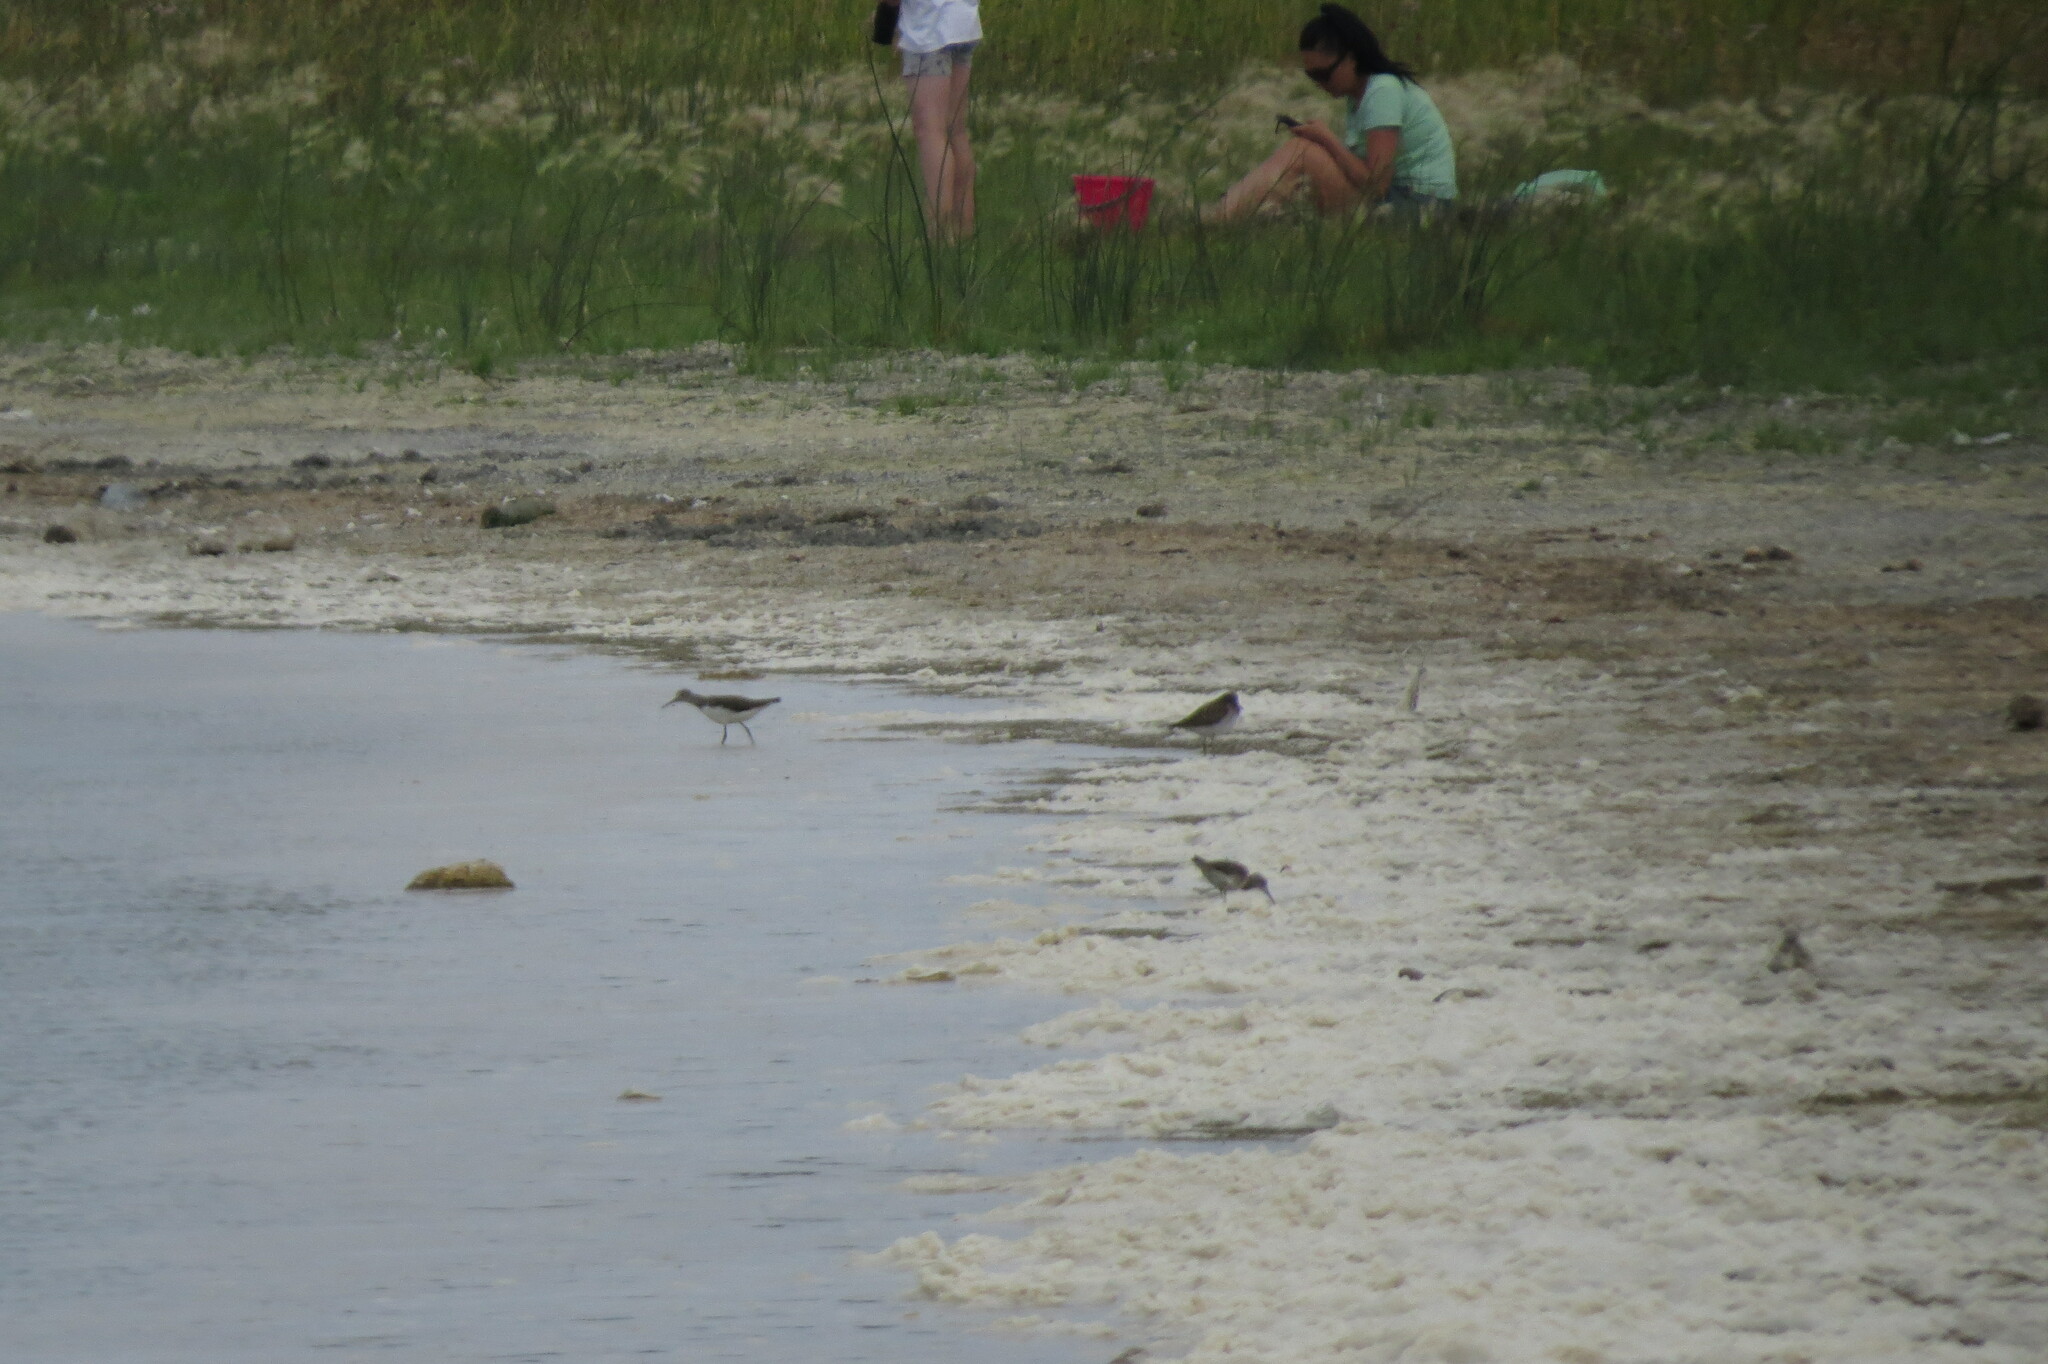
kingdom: Animalia
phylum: Chordata
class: Aves
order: Charadriiformes
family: Scolopacidae
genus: Tringa
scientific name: Tringa ochropus
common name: Green sandpiper
